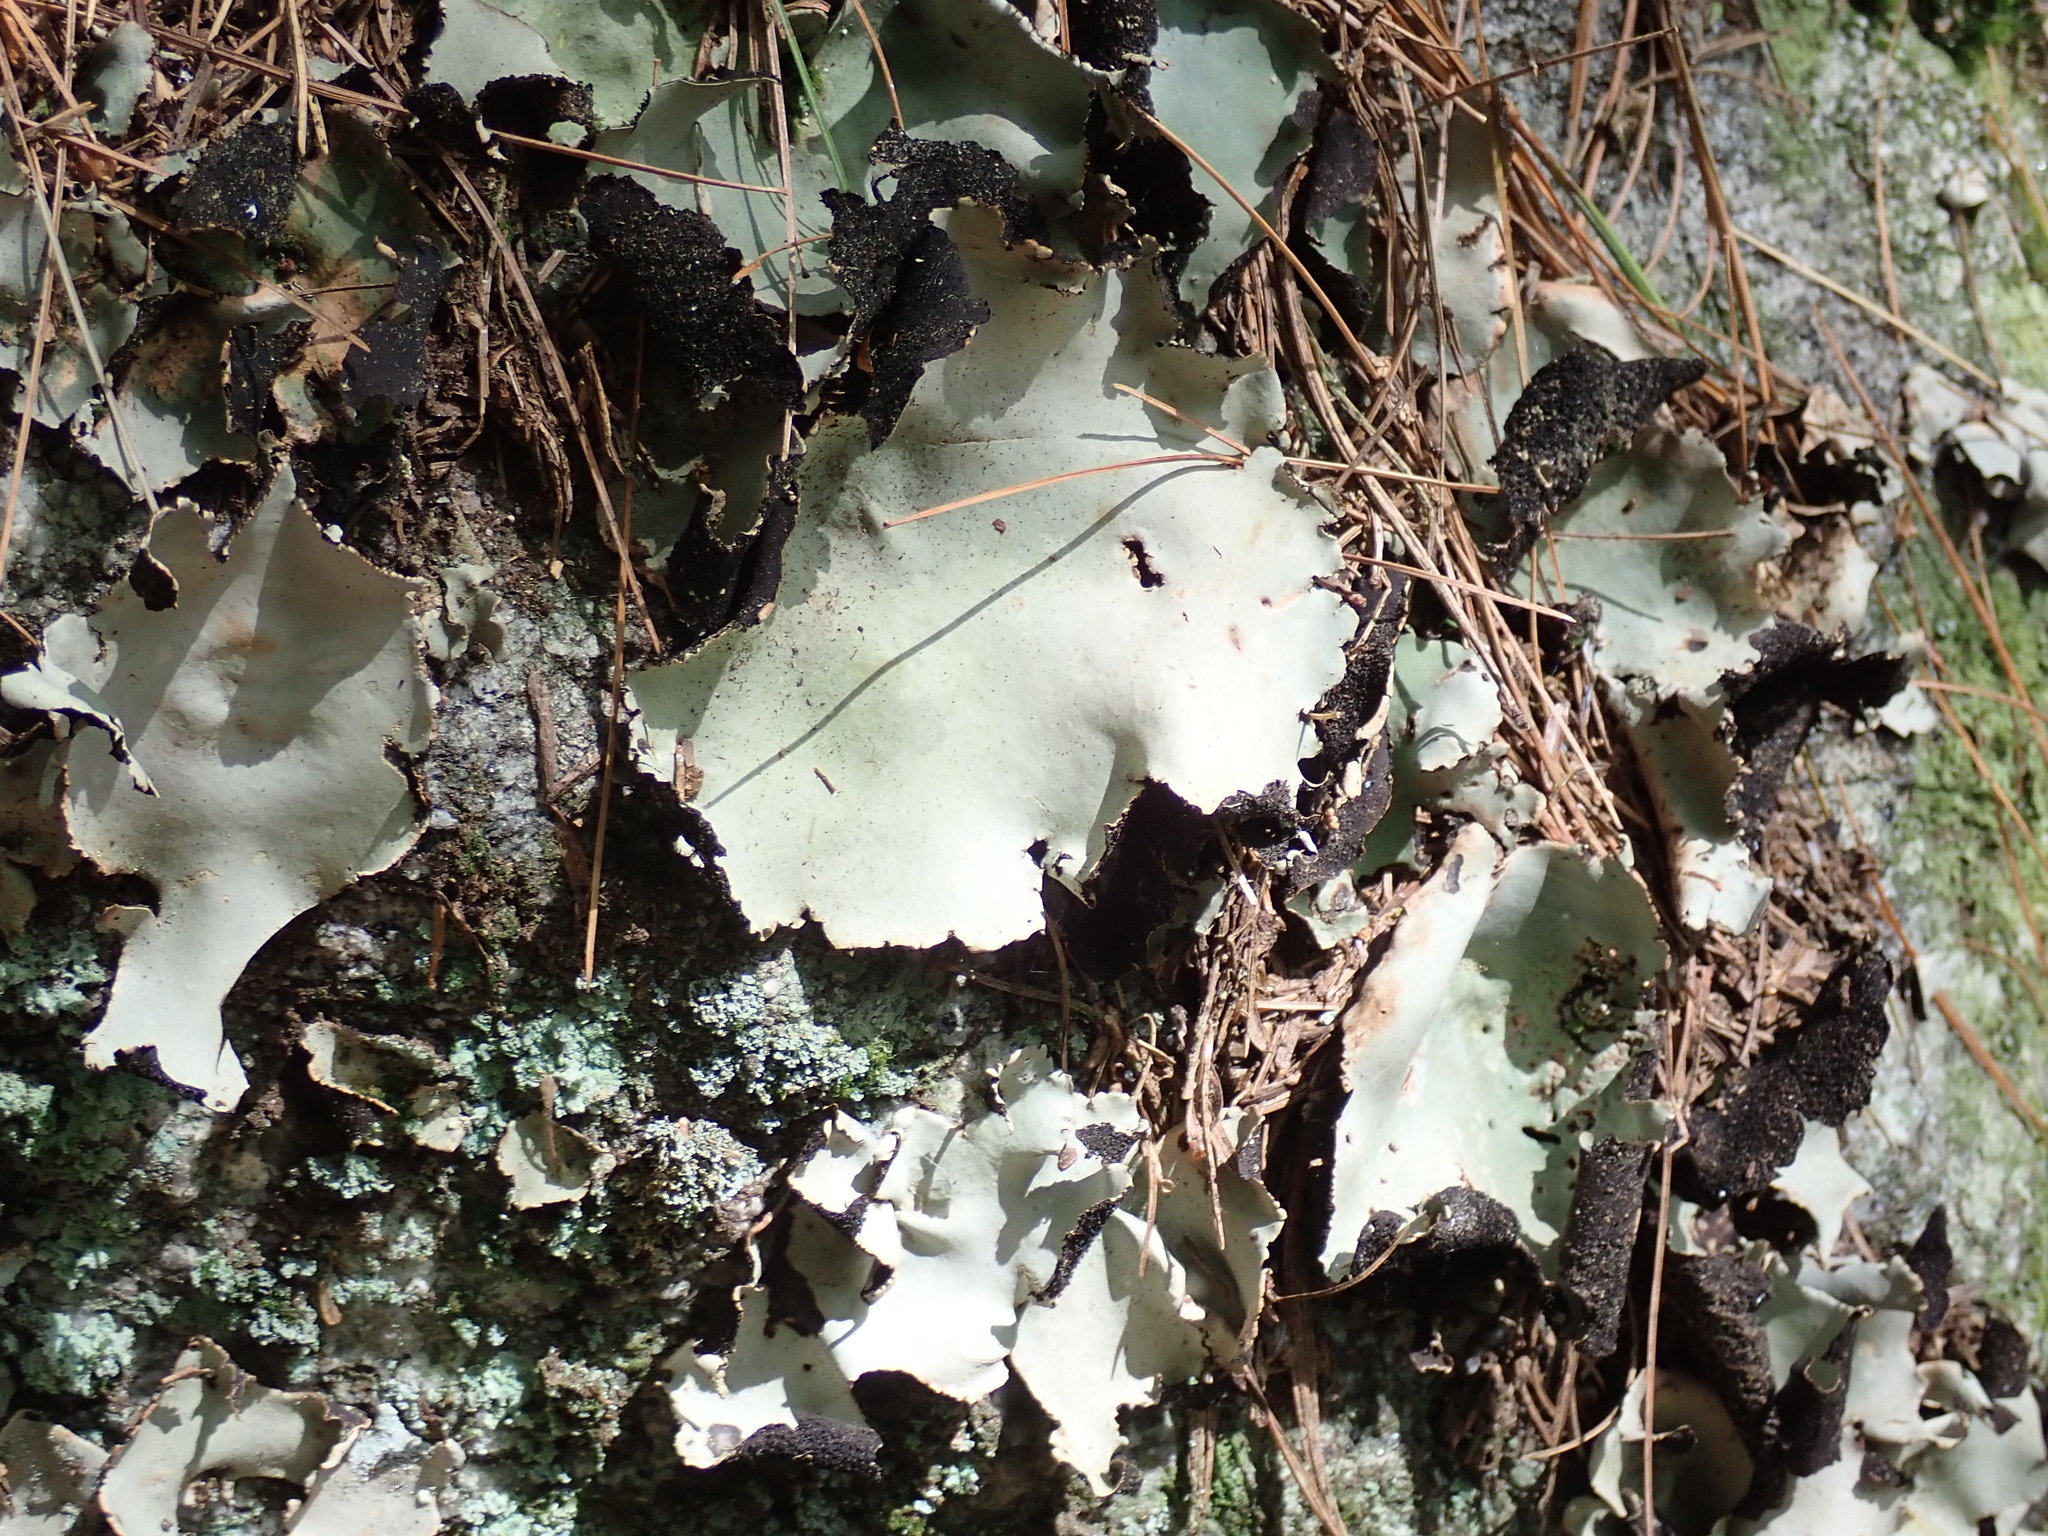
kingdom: Fungi
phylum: Ascomycota
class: Lecanoromycetes
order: Umbilicariales
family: Umbilicariaceae
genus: Umbilicaria
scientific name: Umbilicaria mammulata
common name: Smooth rock tripe
